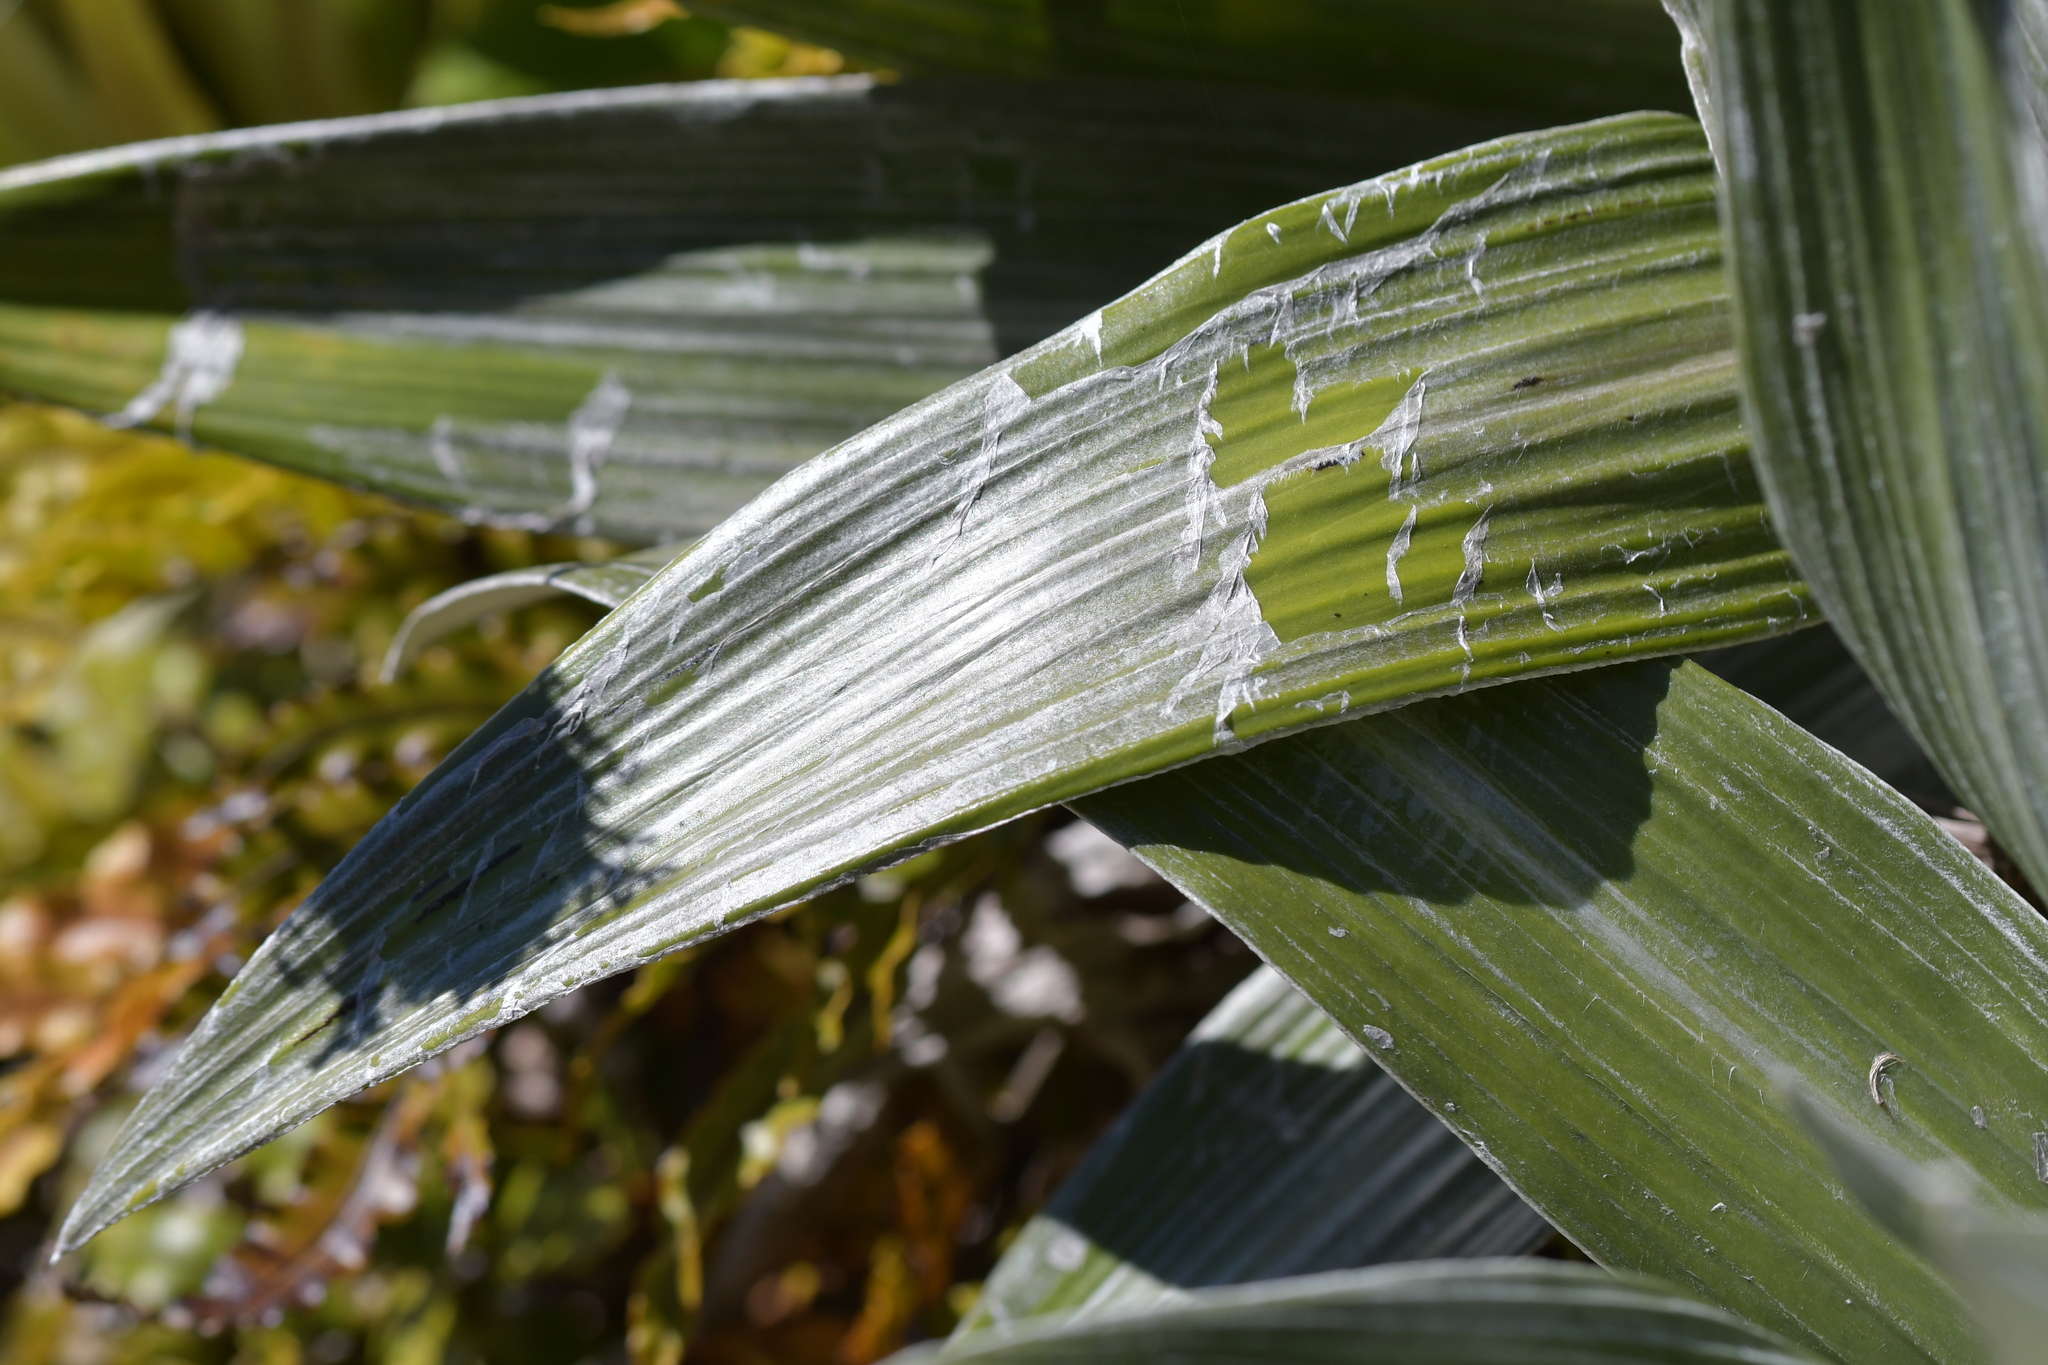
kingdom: Plantae
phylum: Tracheophyta
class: Magnoliopsida
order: Asterales
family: Asteraceae
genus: Celmisia
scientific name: Celmisia semicordata
